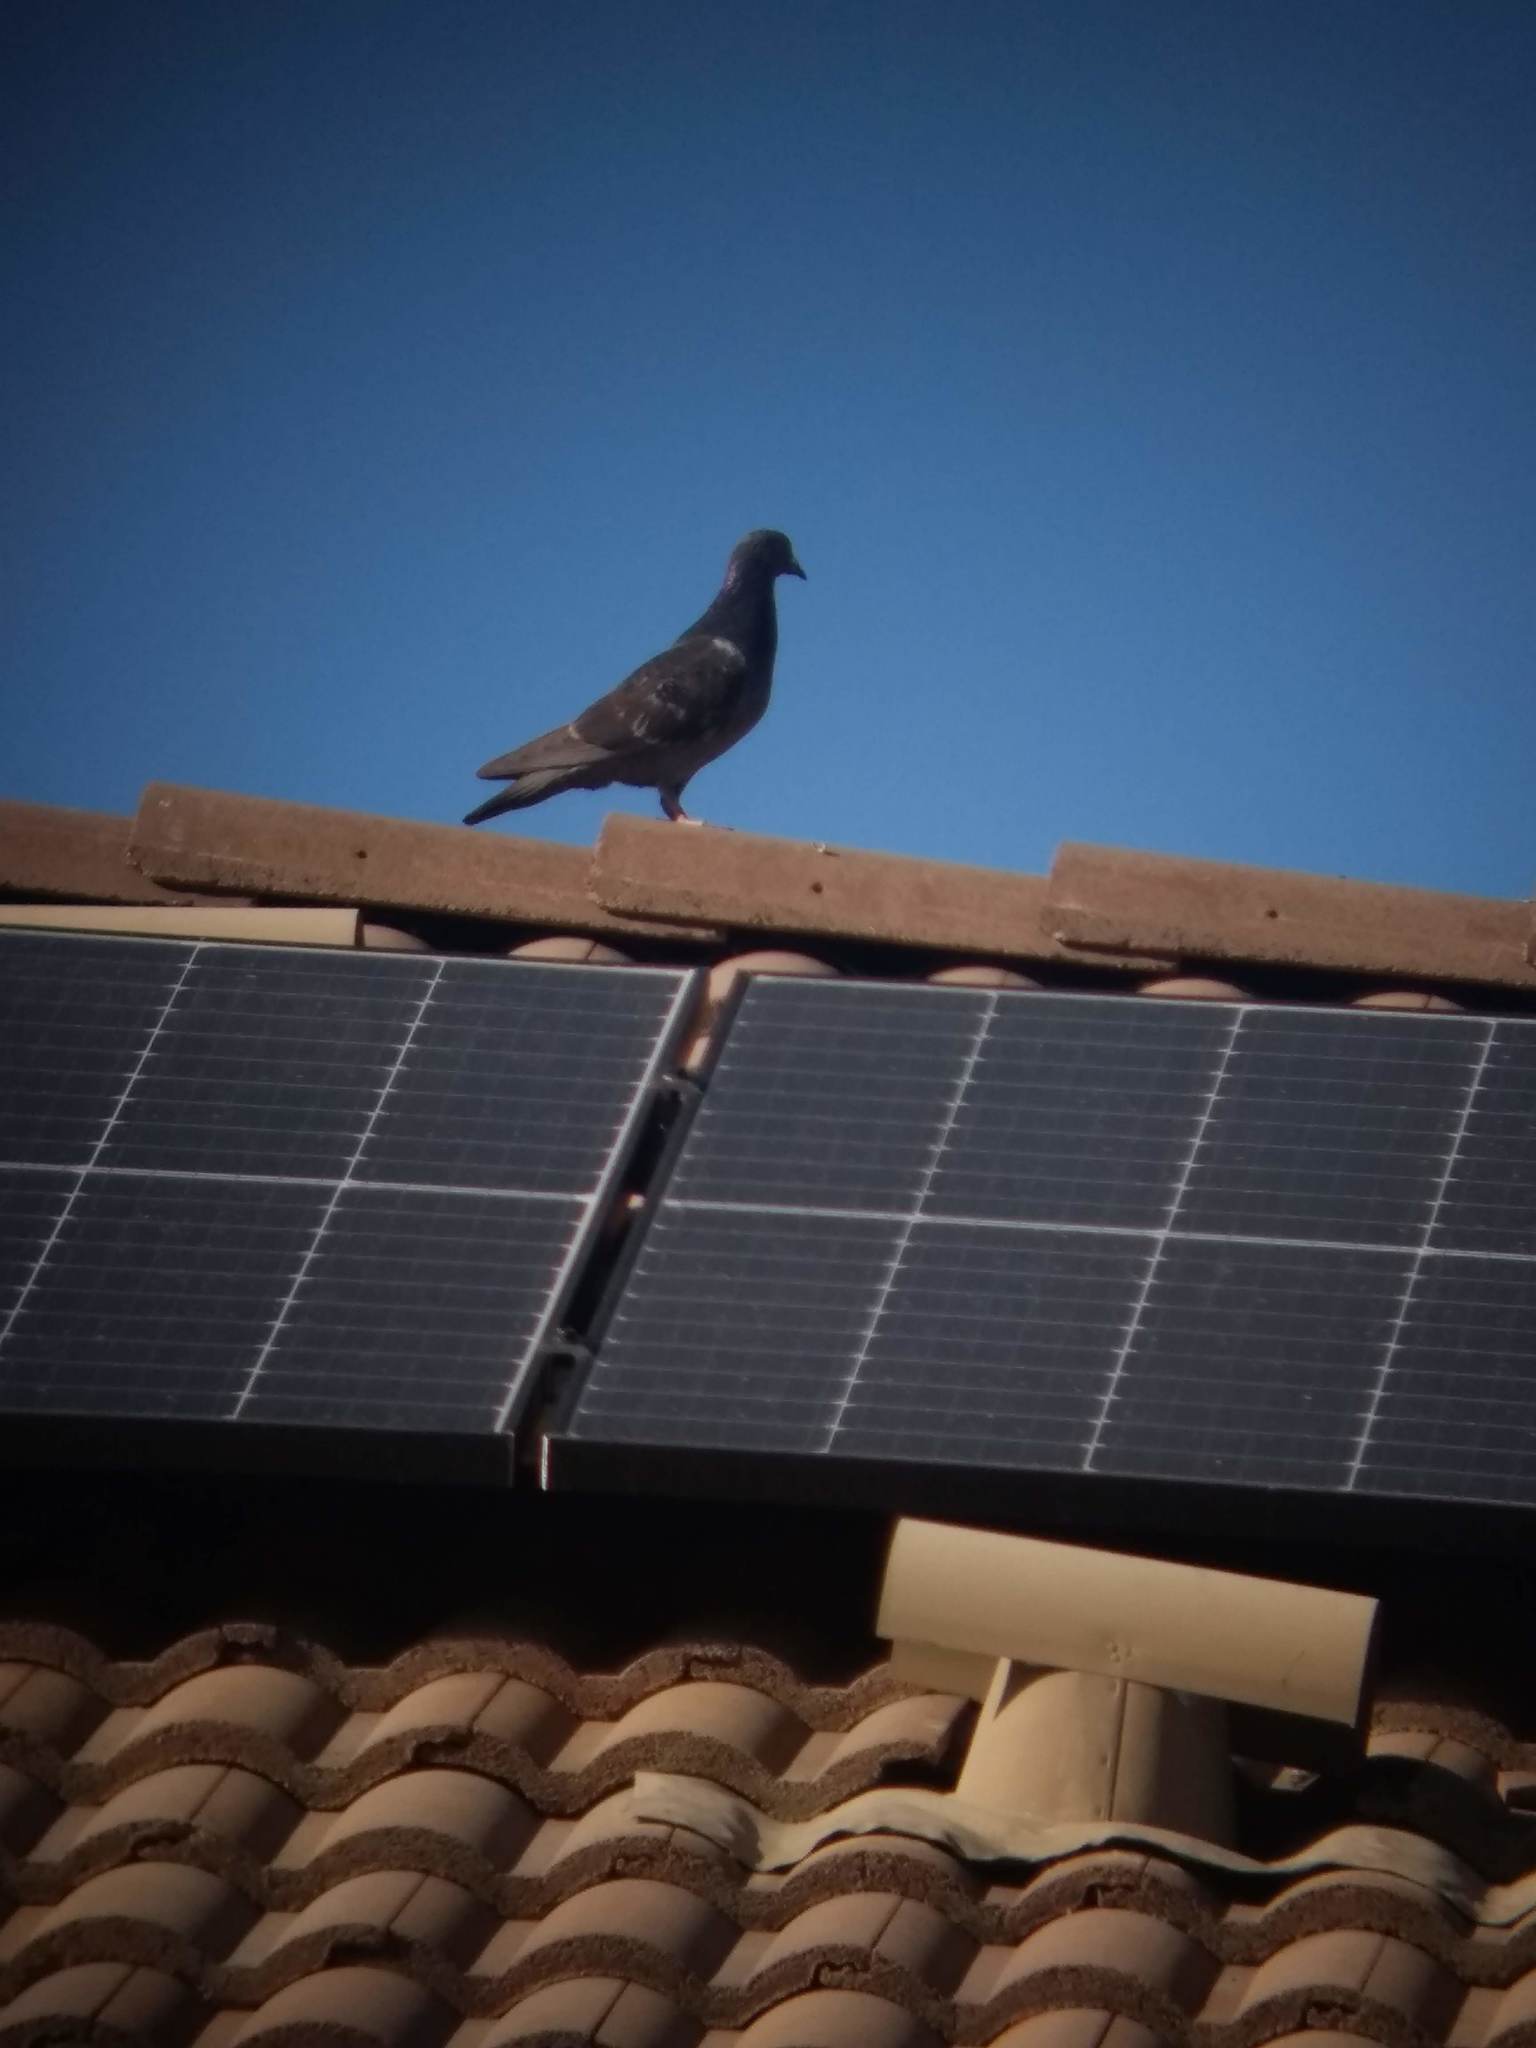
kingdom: Animalia
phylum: Chordata
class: Aves
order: Columbiformes
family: Columbidae
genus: Columba
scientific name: Columba livia
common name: Rock pigeon
